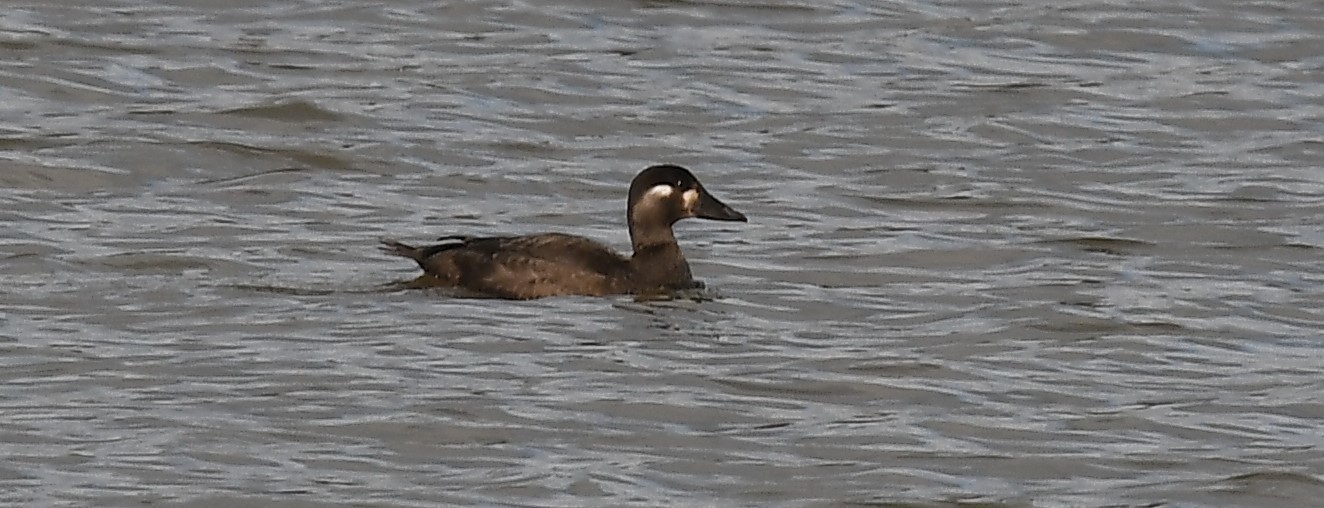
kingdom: Animalia
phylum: Chordata
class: Aves
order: Anseriformes
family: Anatidae
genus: Melanitta
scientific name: Melanitta perspicillata
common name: Surf scoter
